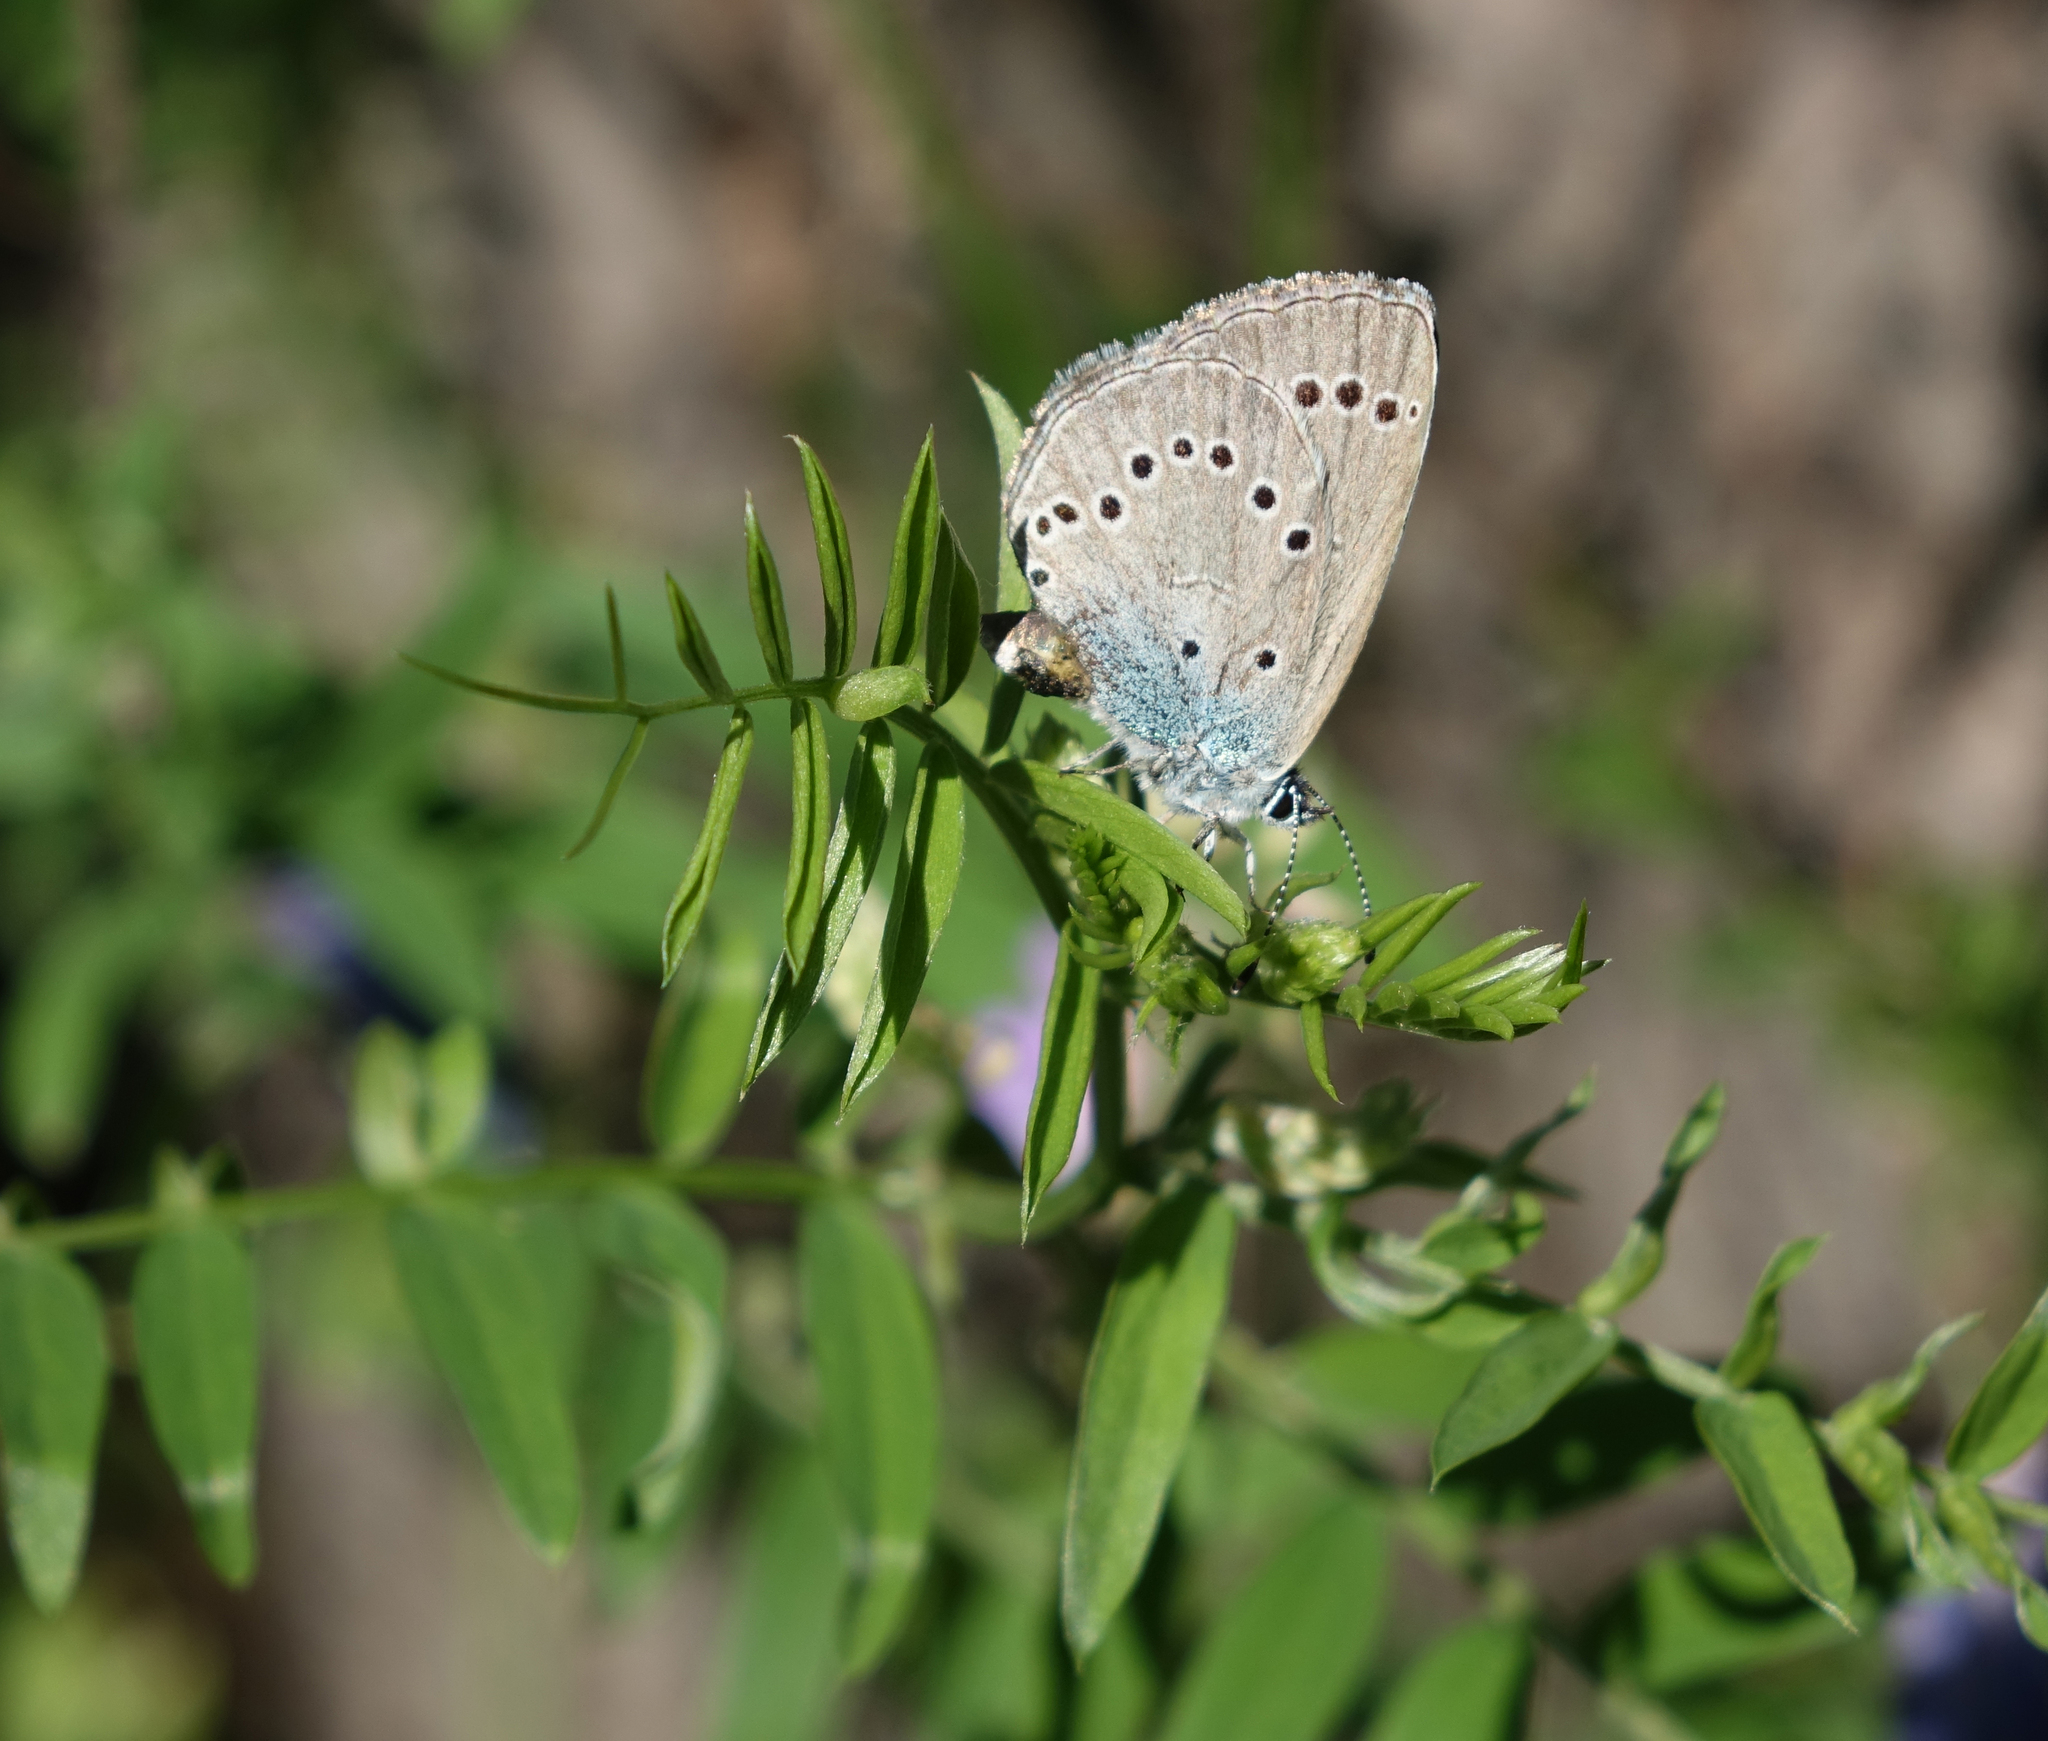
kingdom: Animalia
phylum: Arthropoda
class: Insecta
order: Lepidoptera
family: Lycaenidae
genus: Glaucopsyche
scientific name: Glaucopsyche lycormas
